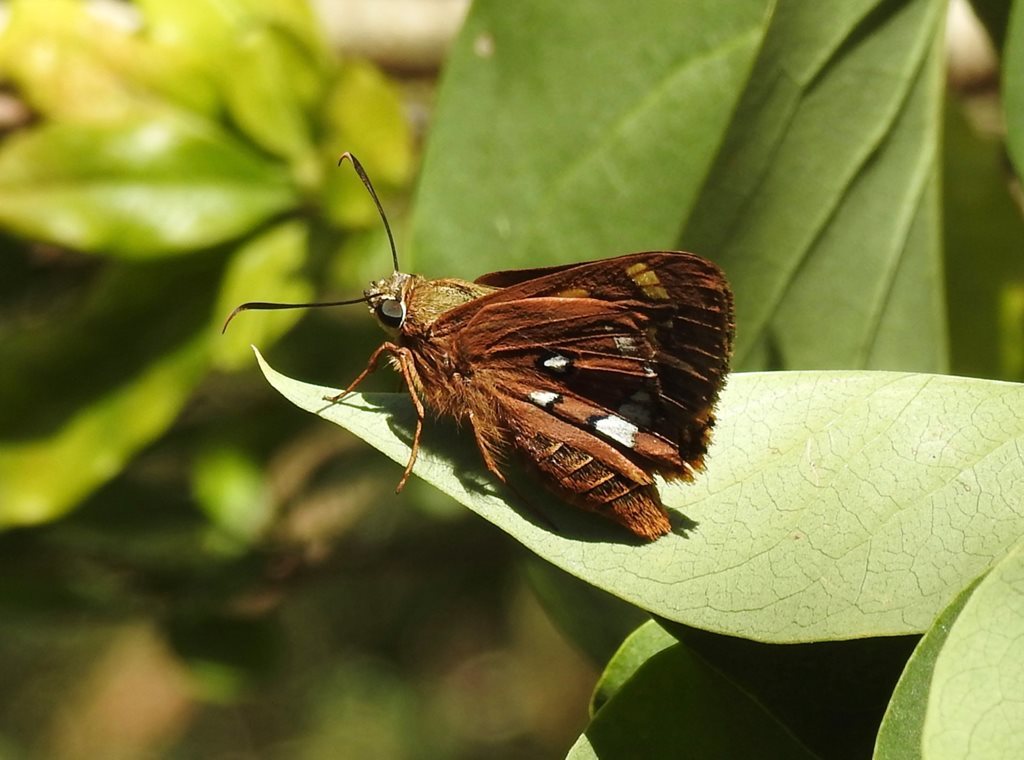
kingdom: Animalia
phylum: Arthropoda
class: Insecta
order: Lepidoptera
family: Hesperiidae
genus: Trapezites
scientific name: Trapezites symmomus
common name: Splendid ochre
